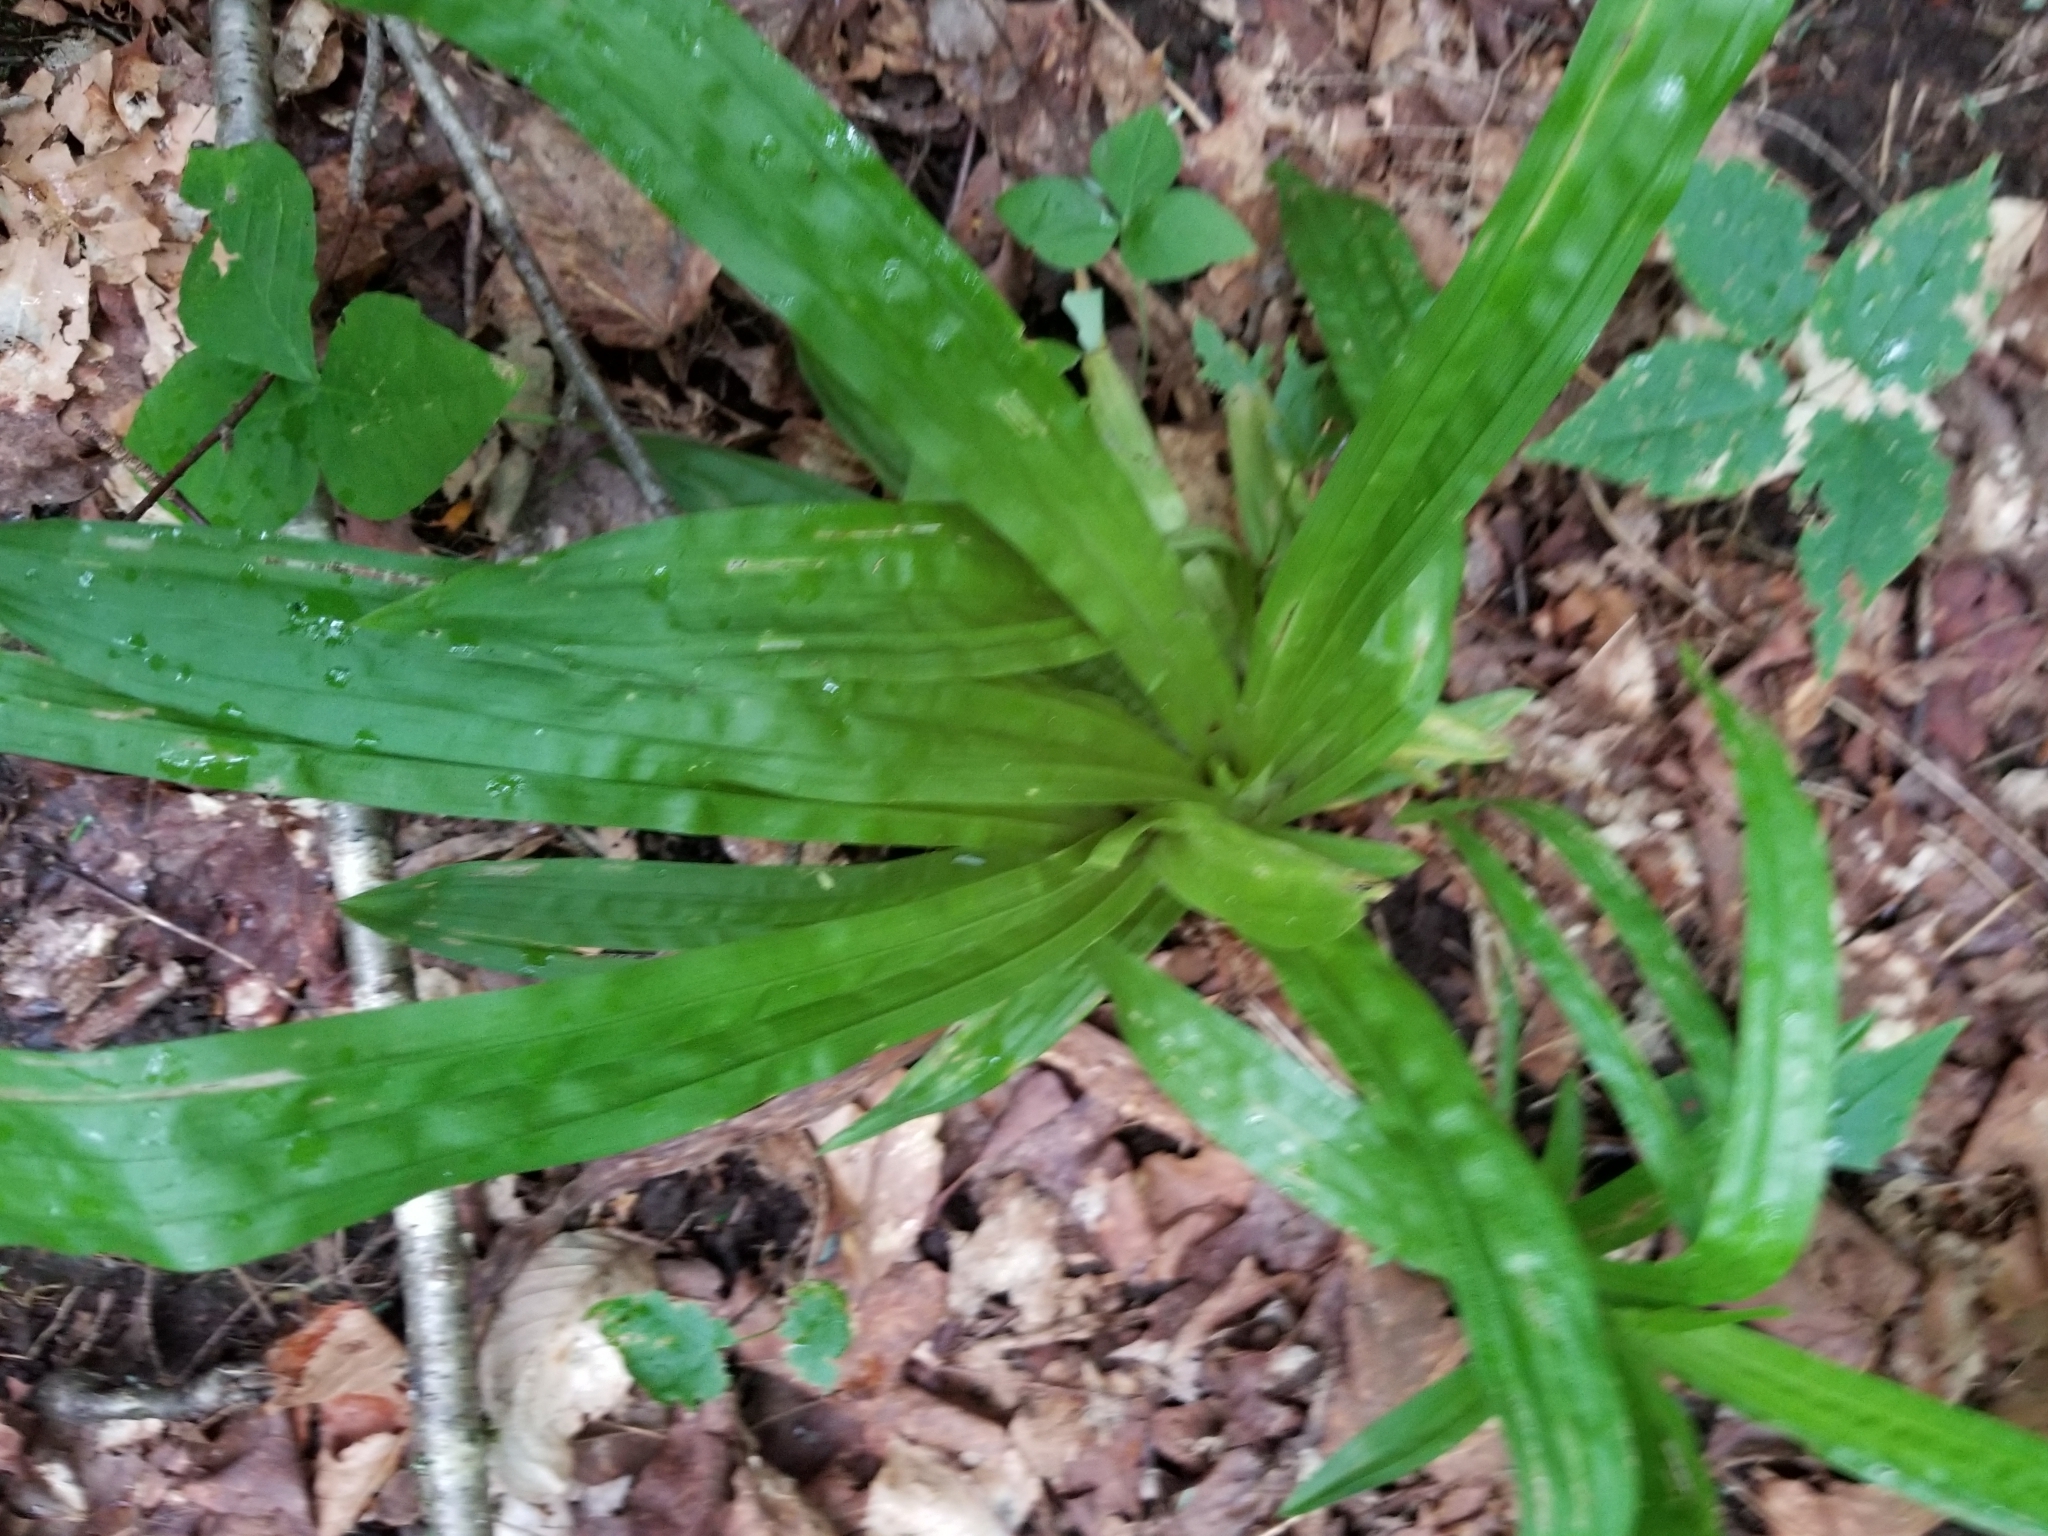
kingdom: Plantae
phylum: Tracheophyta
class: Liliopsida
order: Poales
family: Cyperaceae
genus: Carex
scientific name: Carex plantaginea
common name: Plantain-leaved sedge
